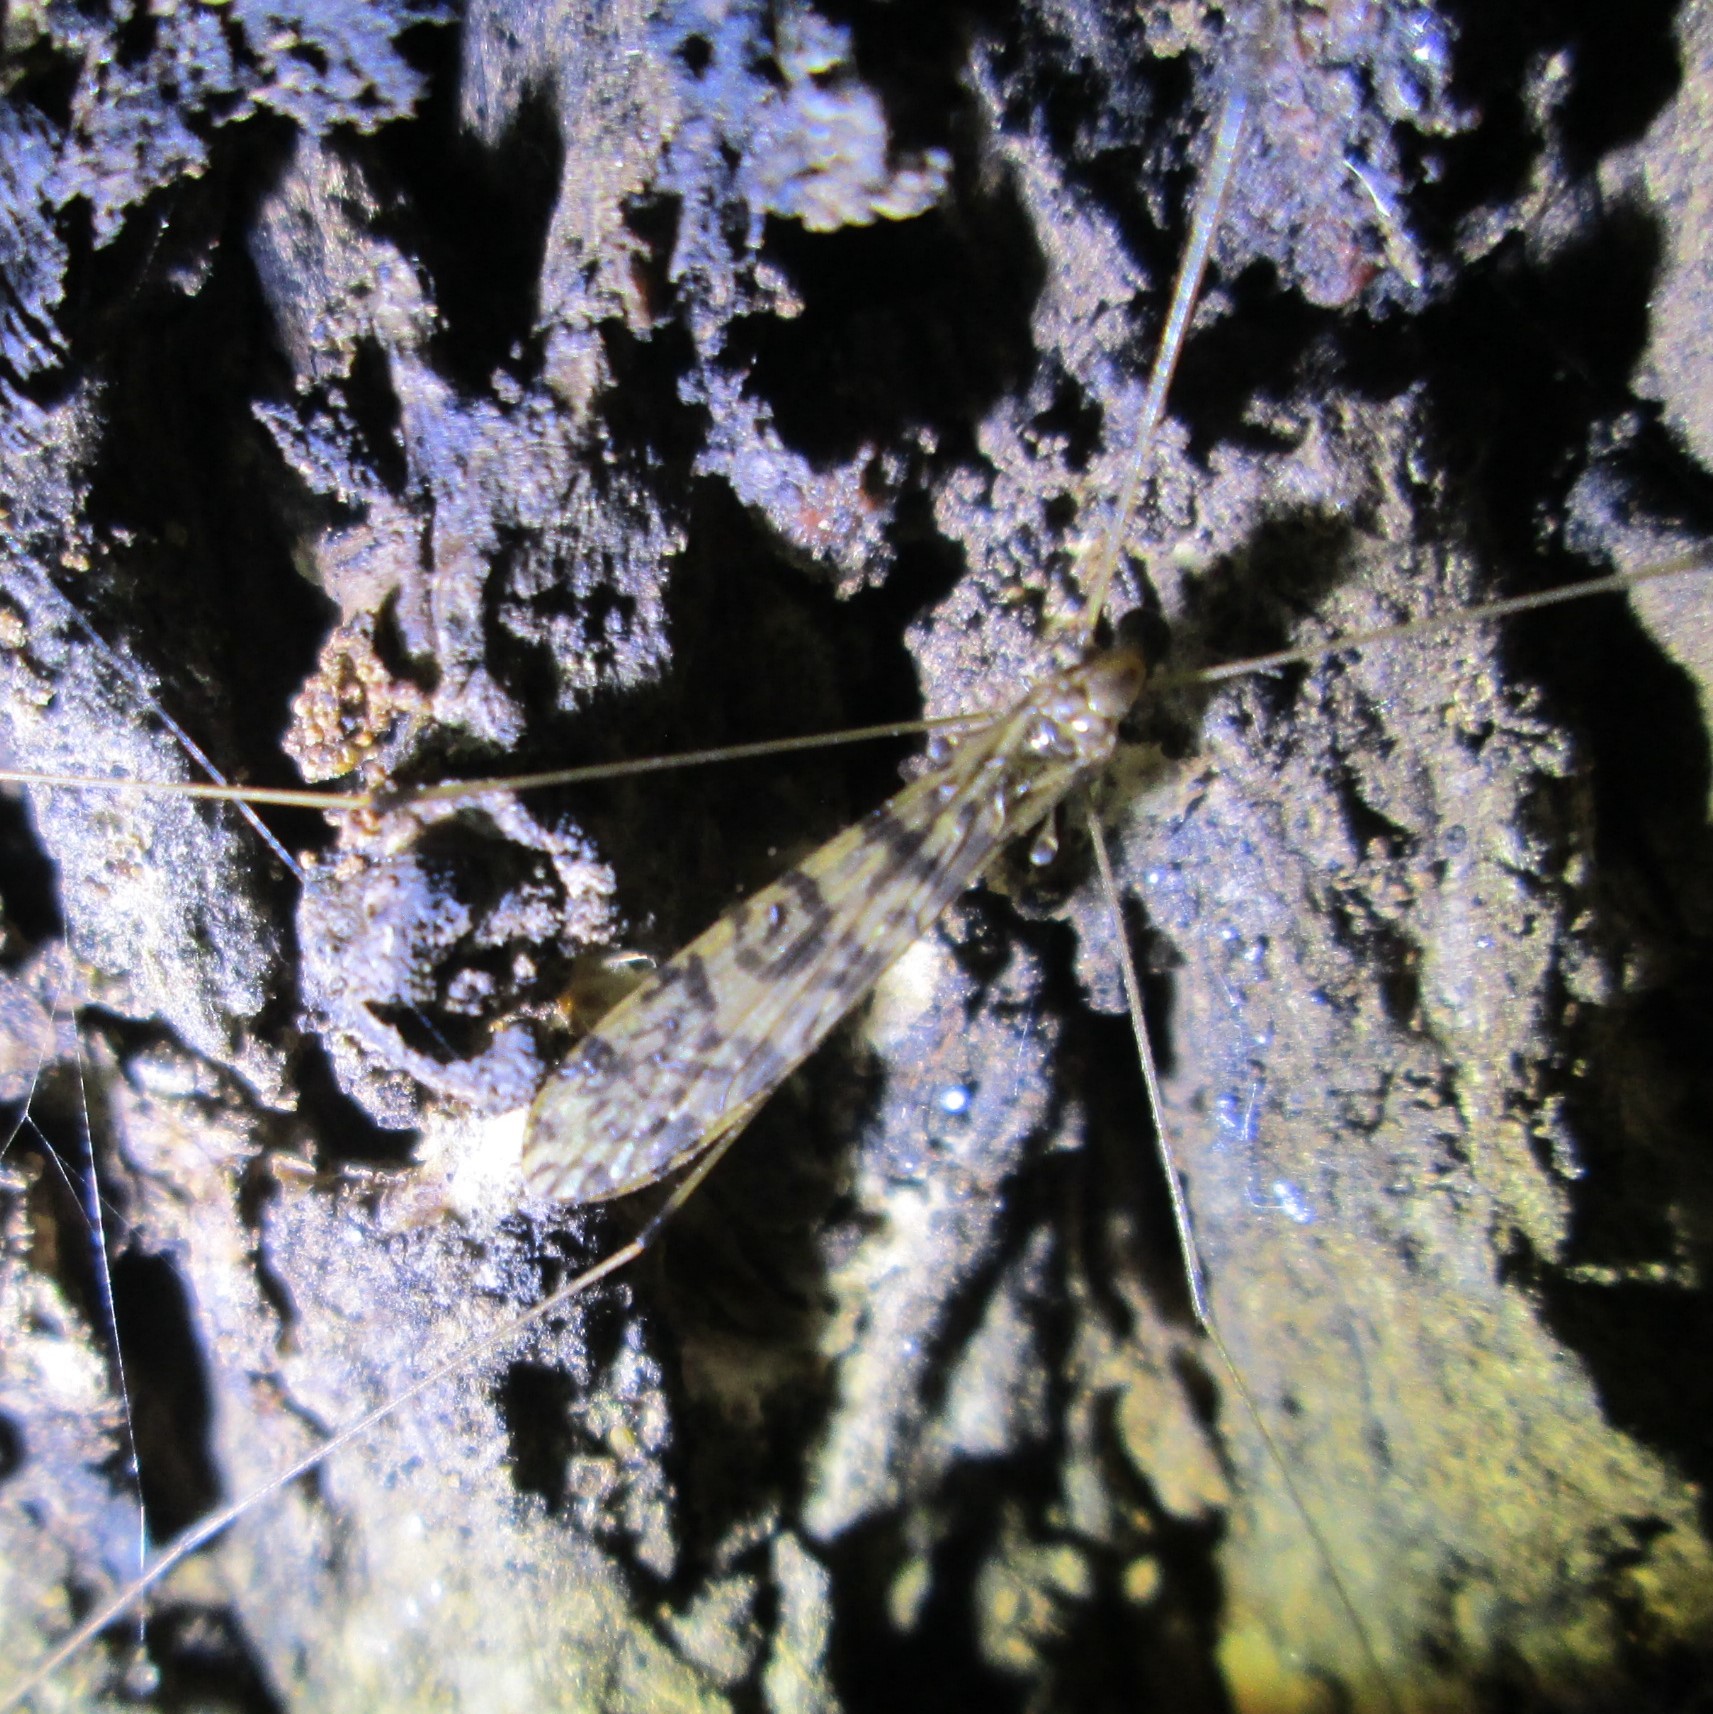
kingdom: Animalia
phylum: Arthropoda
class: Insecta
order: Diptera
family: Limoniidae
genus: Discobola
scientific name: Discobola gibberina
